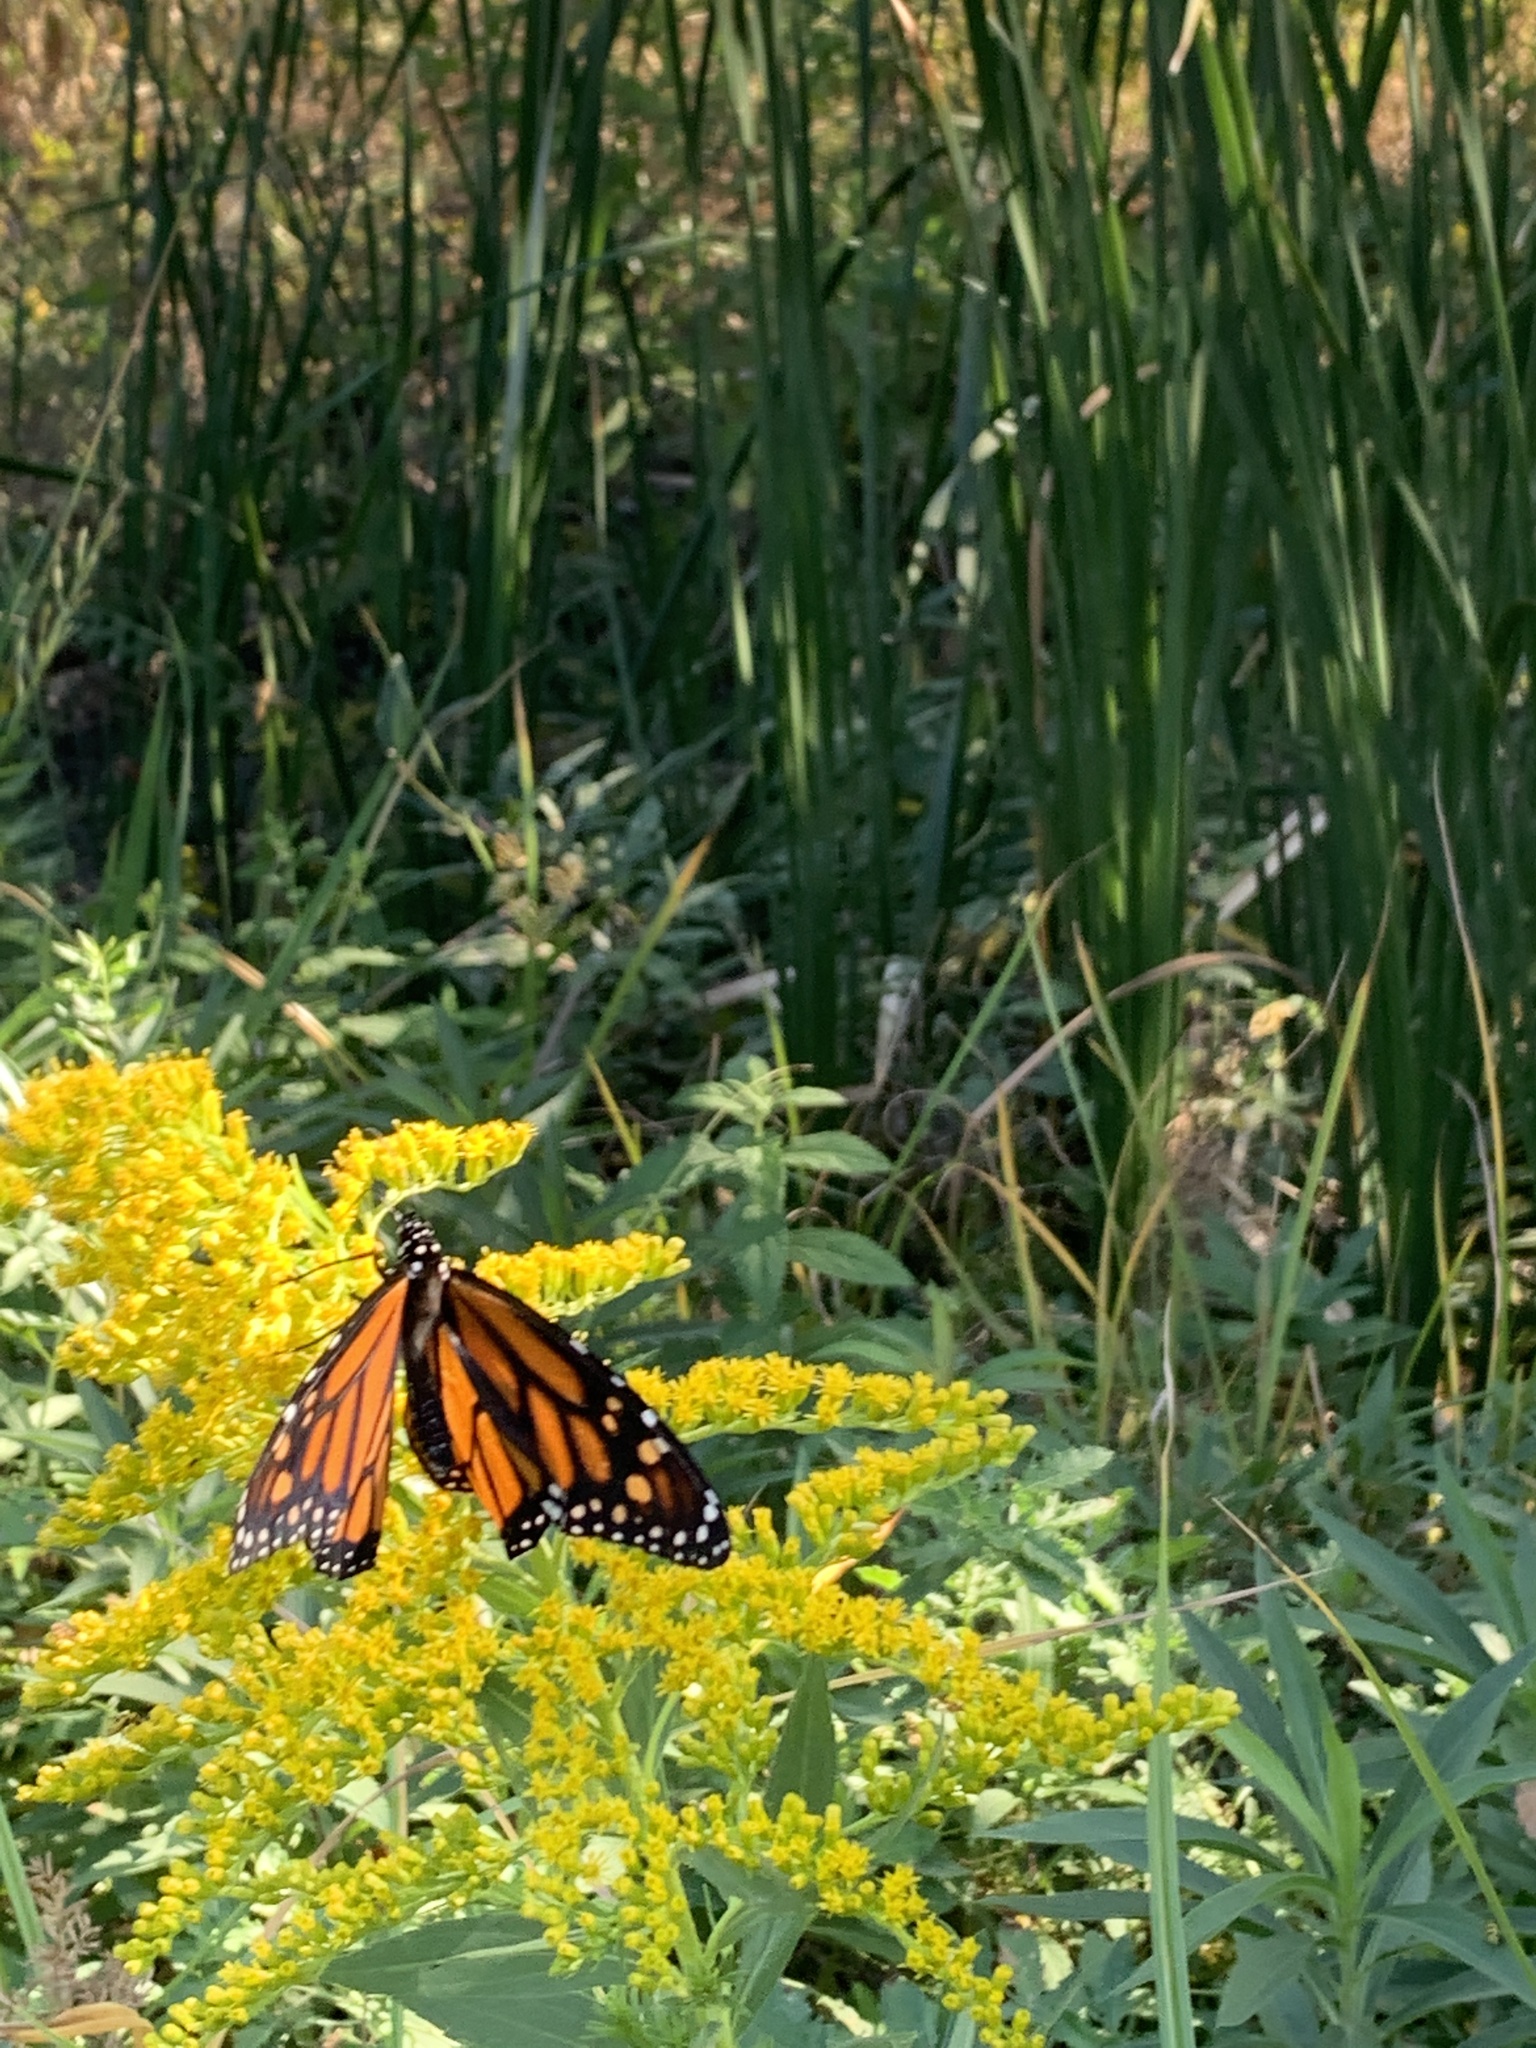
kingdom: Animalia
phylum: Arthropoda
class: Insecta
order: Lepidoptera
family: Nymphalidae
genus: Danaus
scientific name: Danaus plexippus
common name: Monarch
